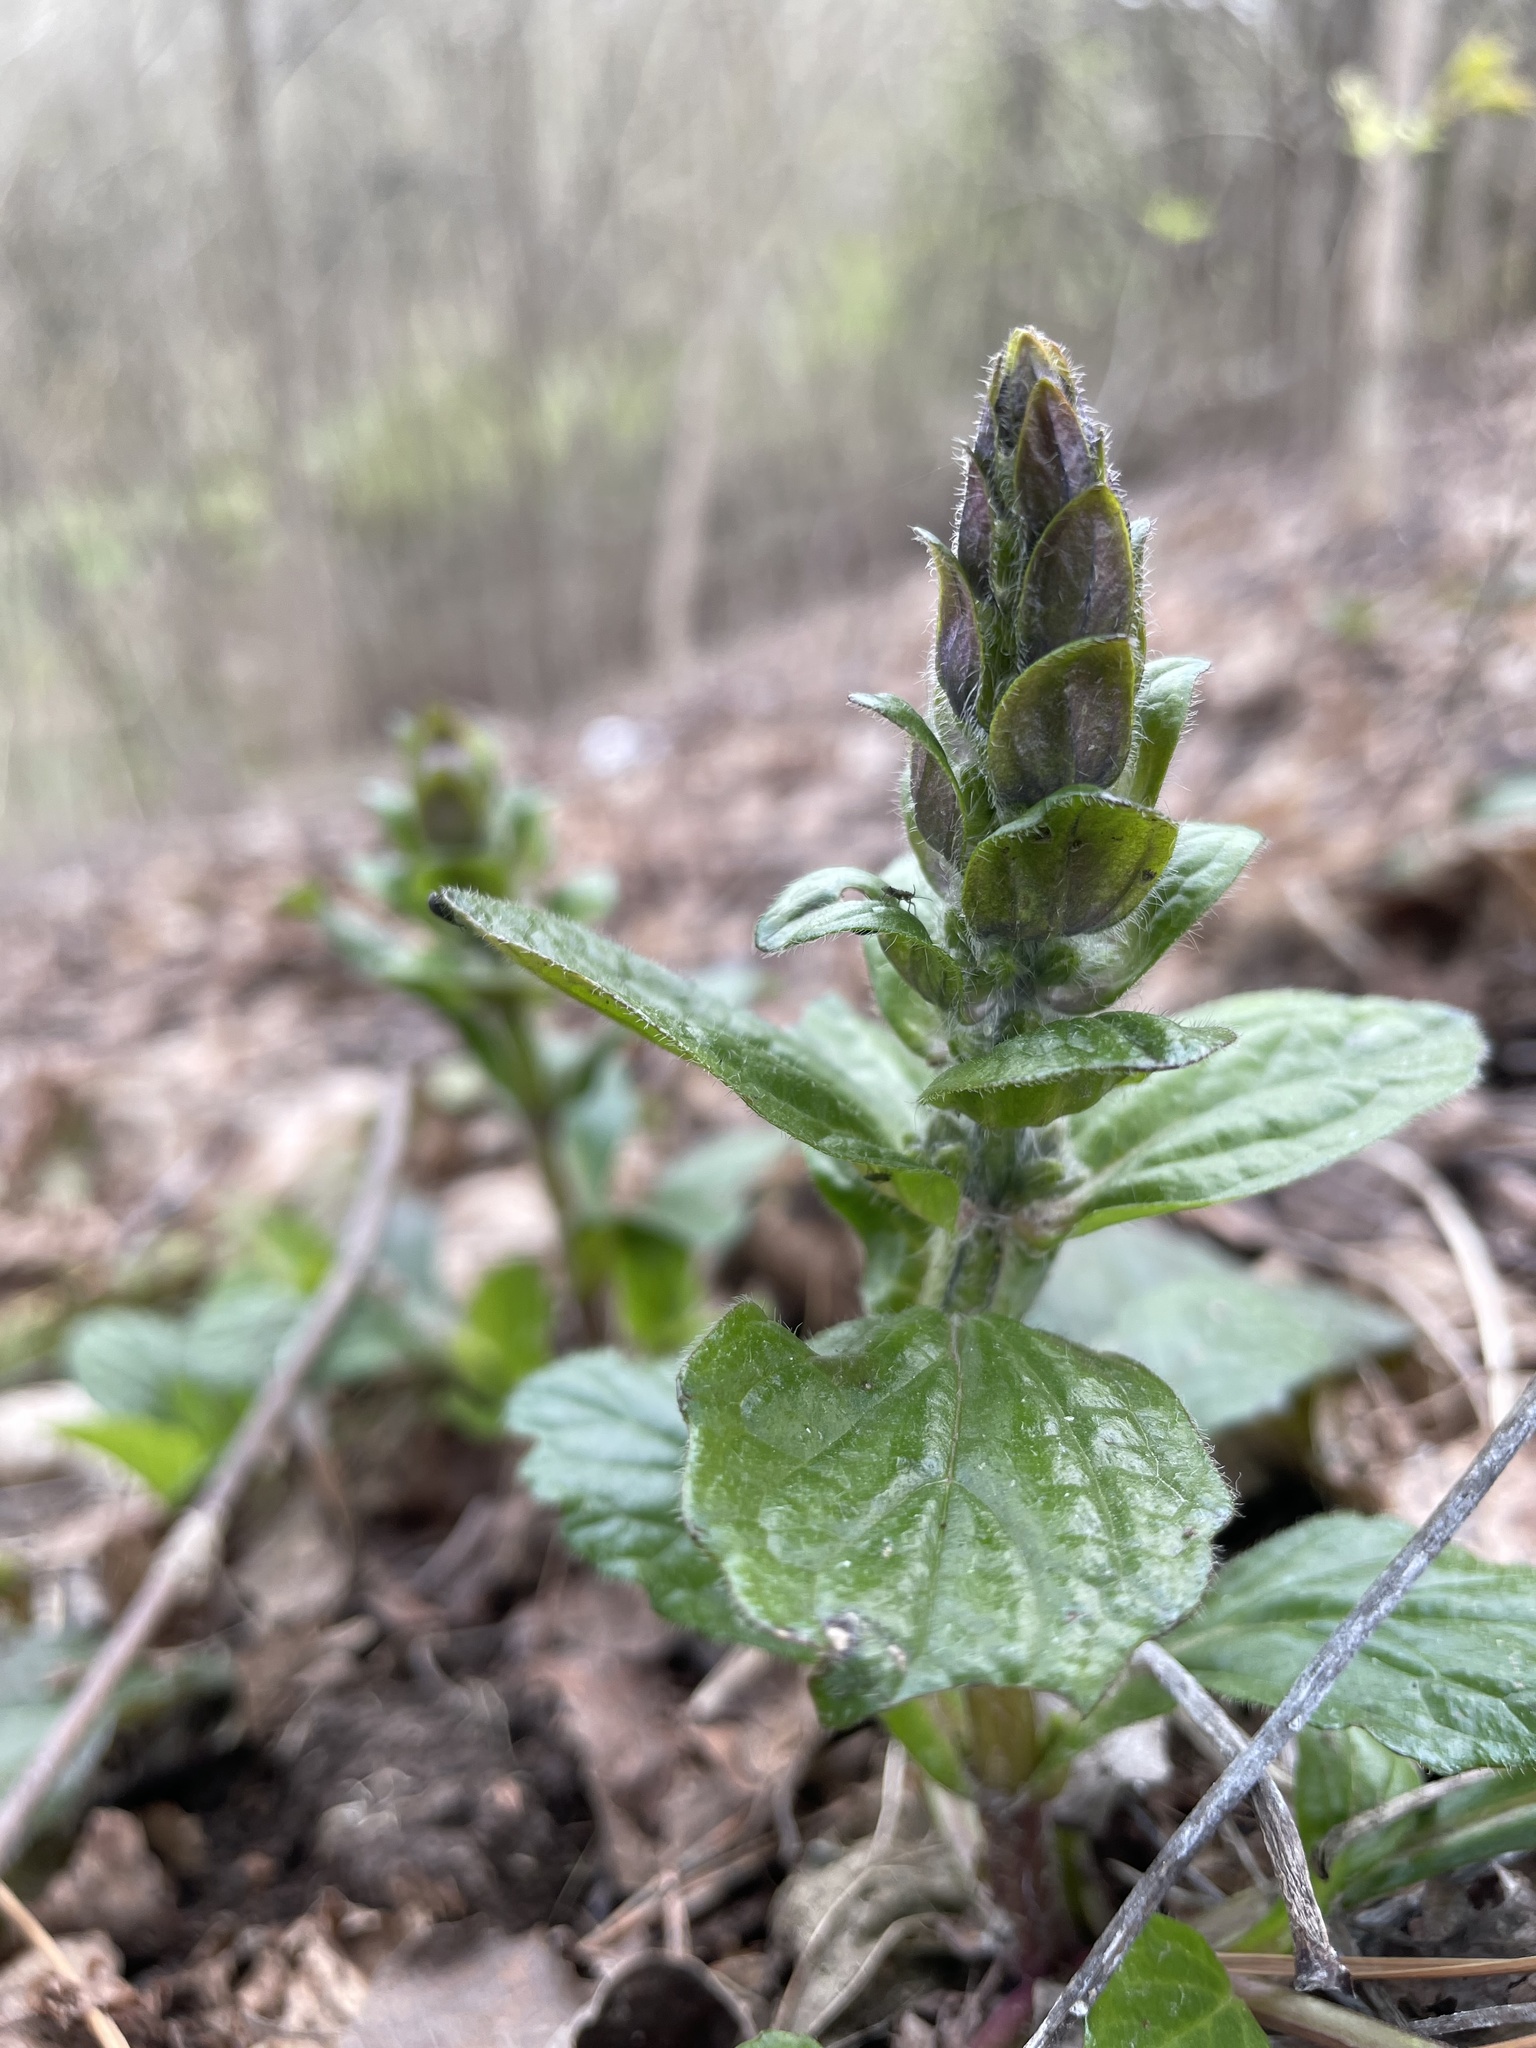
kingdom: Plantae
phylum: Tracheophyta
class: Magnoliopsida
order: Lamiales
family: Lamiaceae
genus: Ajuga
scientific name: Ajuga reptans
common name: Bugle
